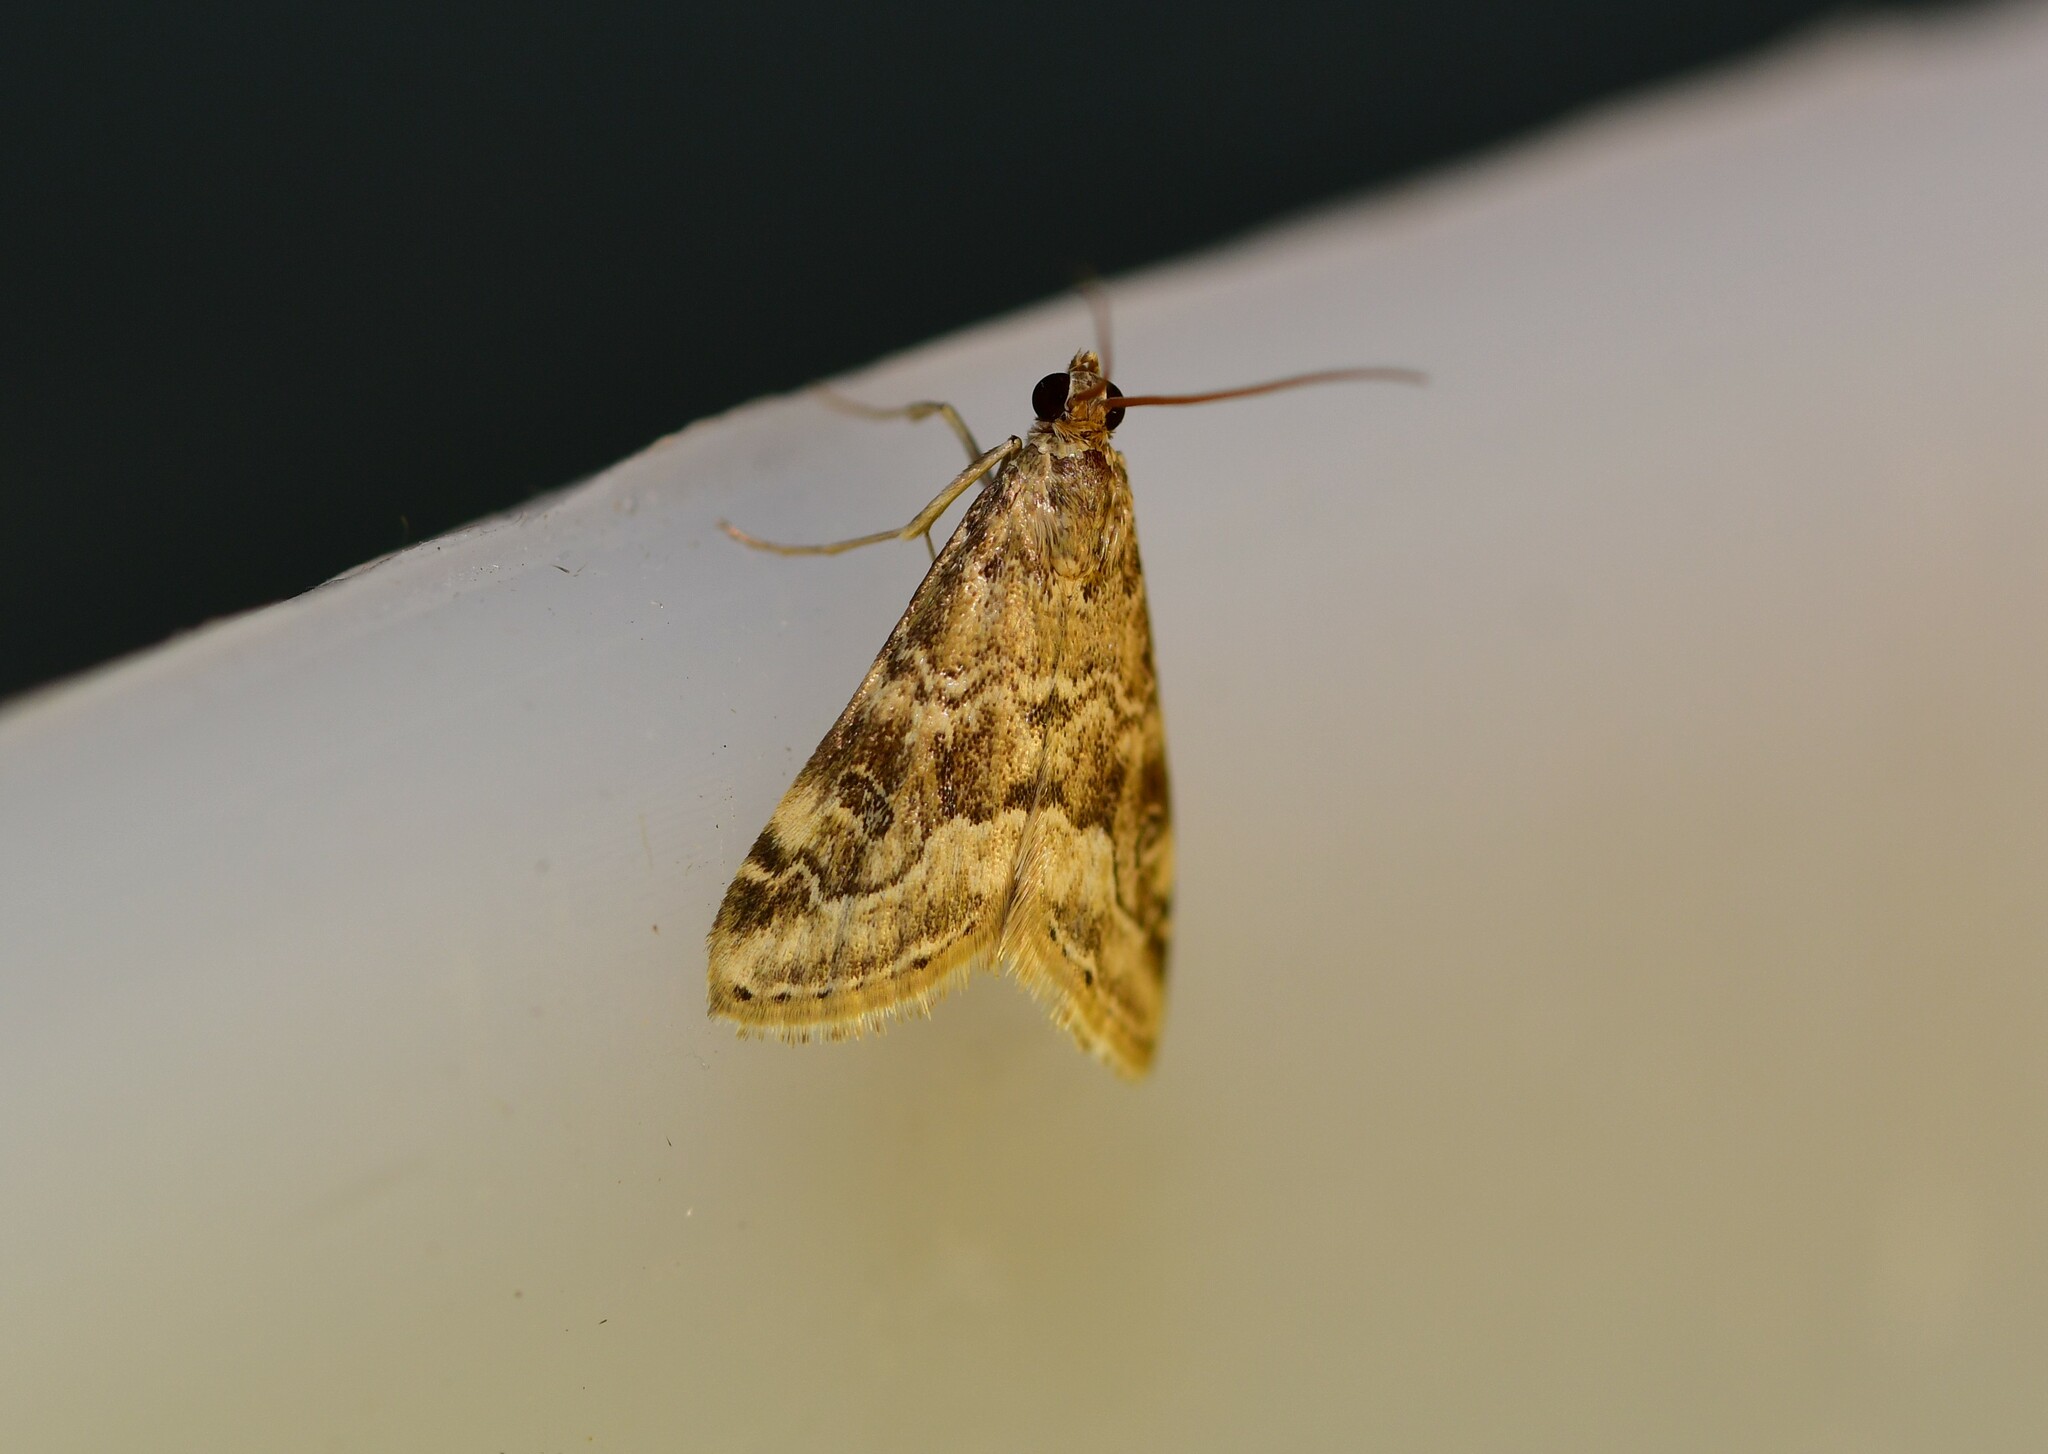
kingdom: Animalia
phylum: Arthropoda
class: Insecta
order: Lepidoptera
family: Crambidae
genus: Hellula
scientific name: Hellula undalis
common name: Cabbage webworm
